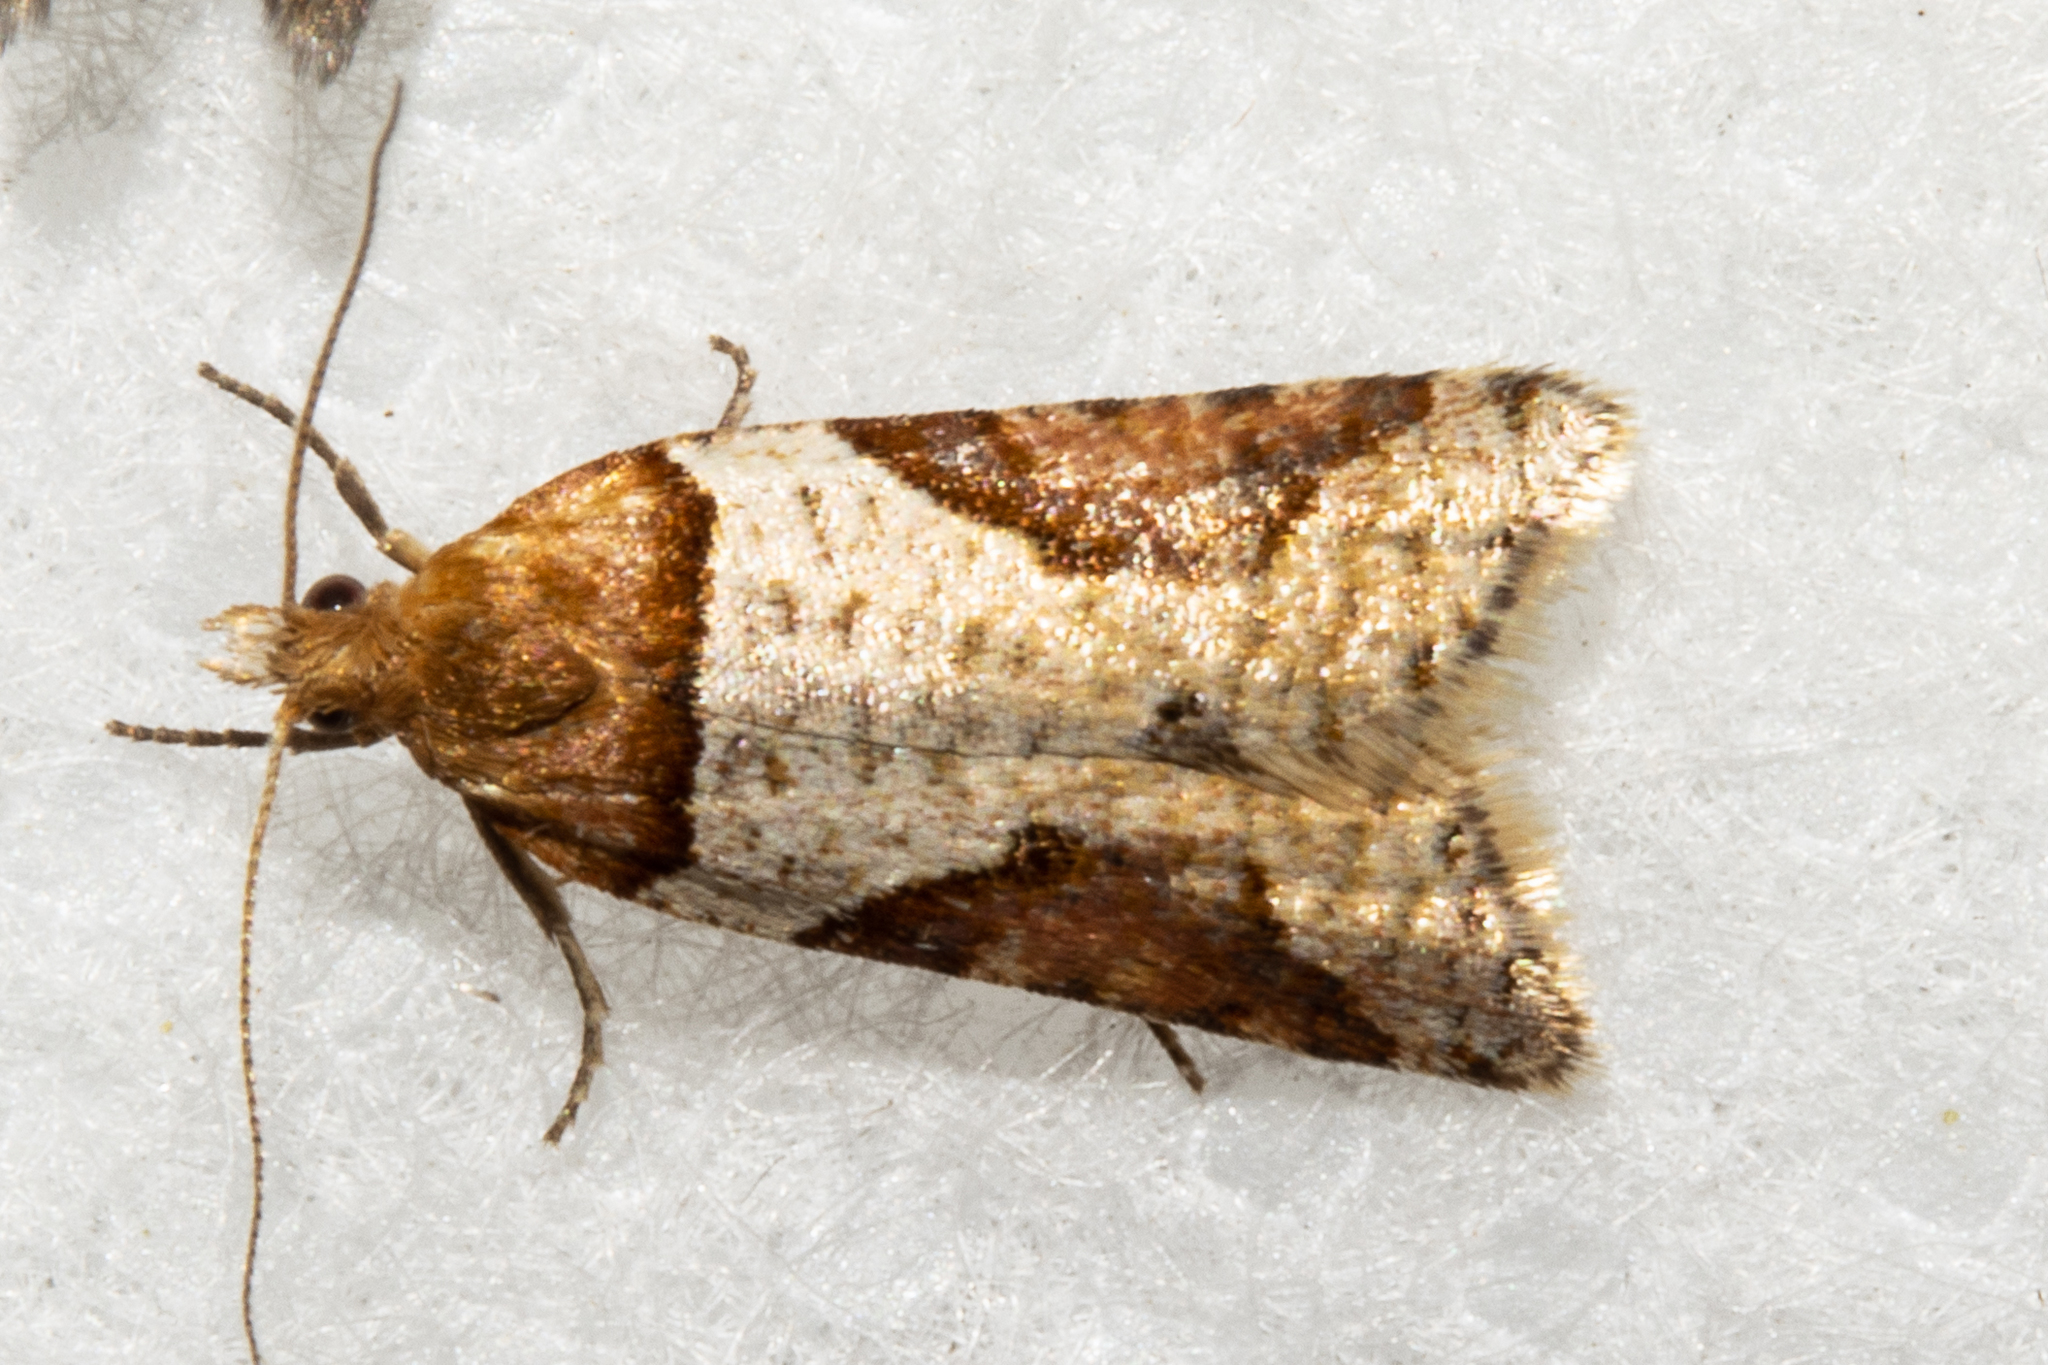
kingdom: Animalia
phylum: Arthropoda
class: Insecta
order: Lepidoptera
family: Tortricidae
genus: Epichorista
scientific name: Epichorista
